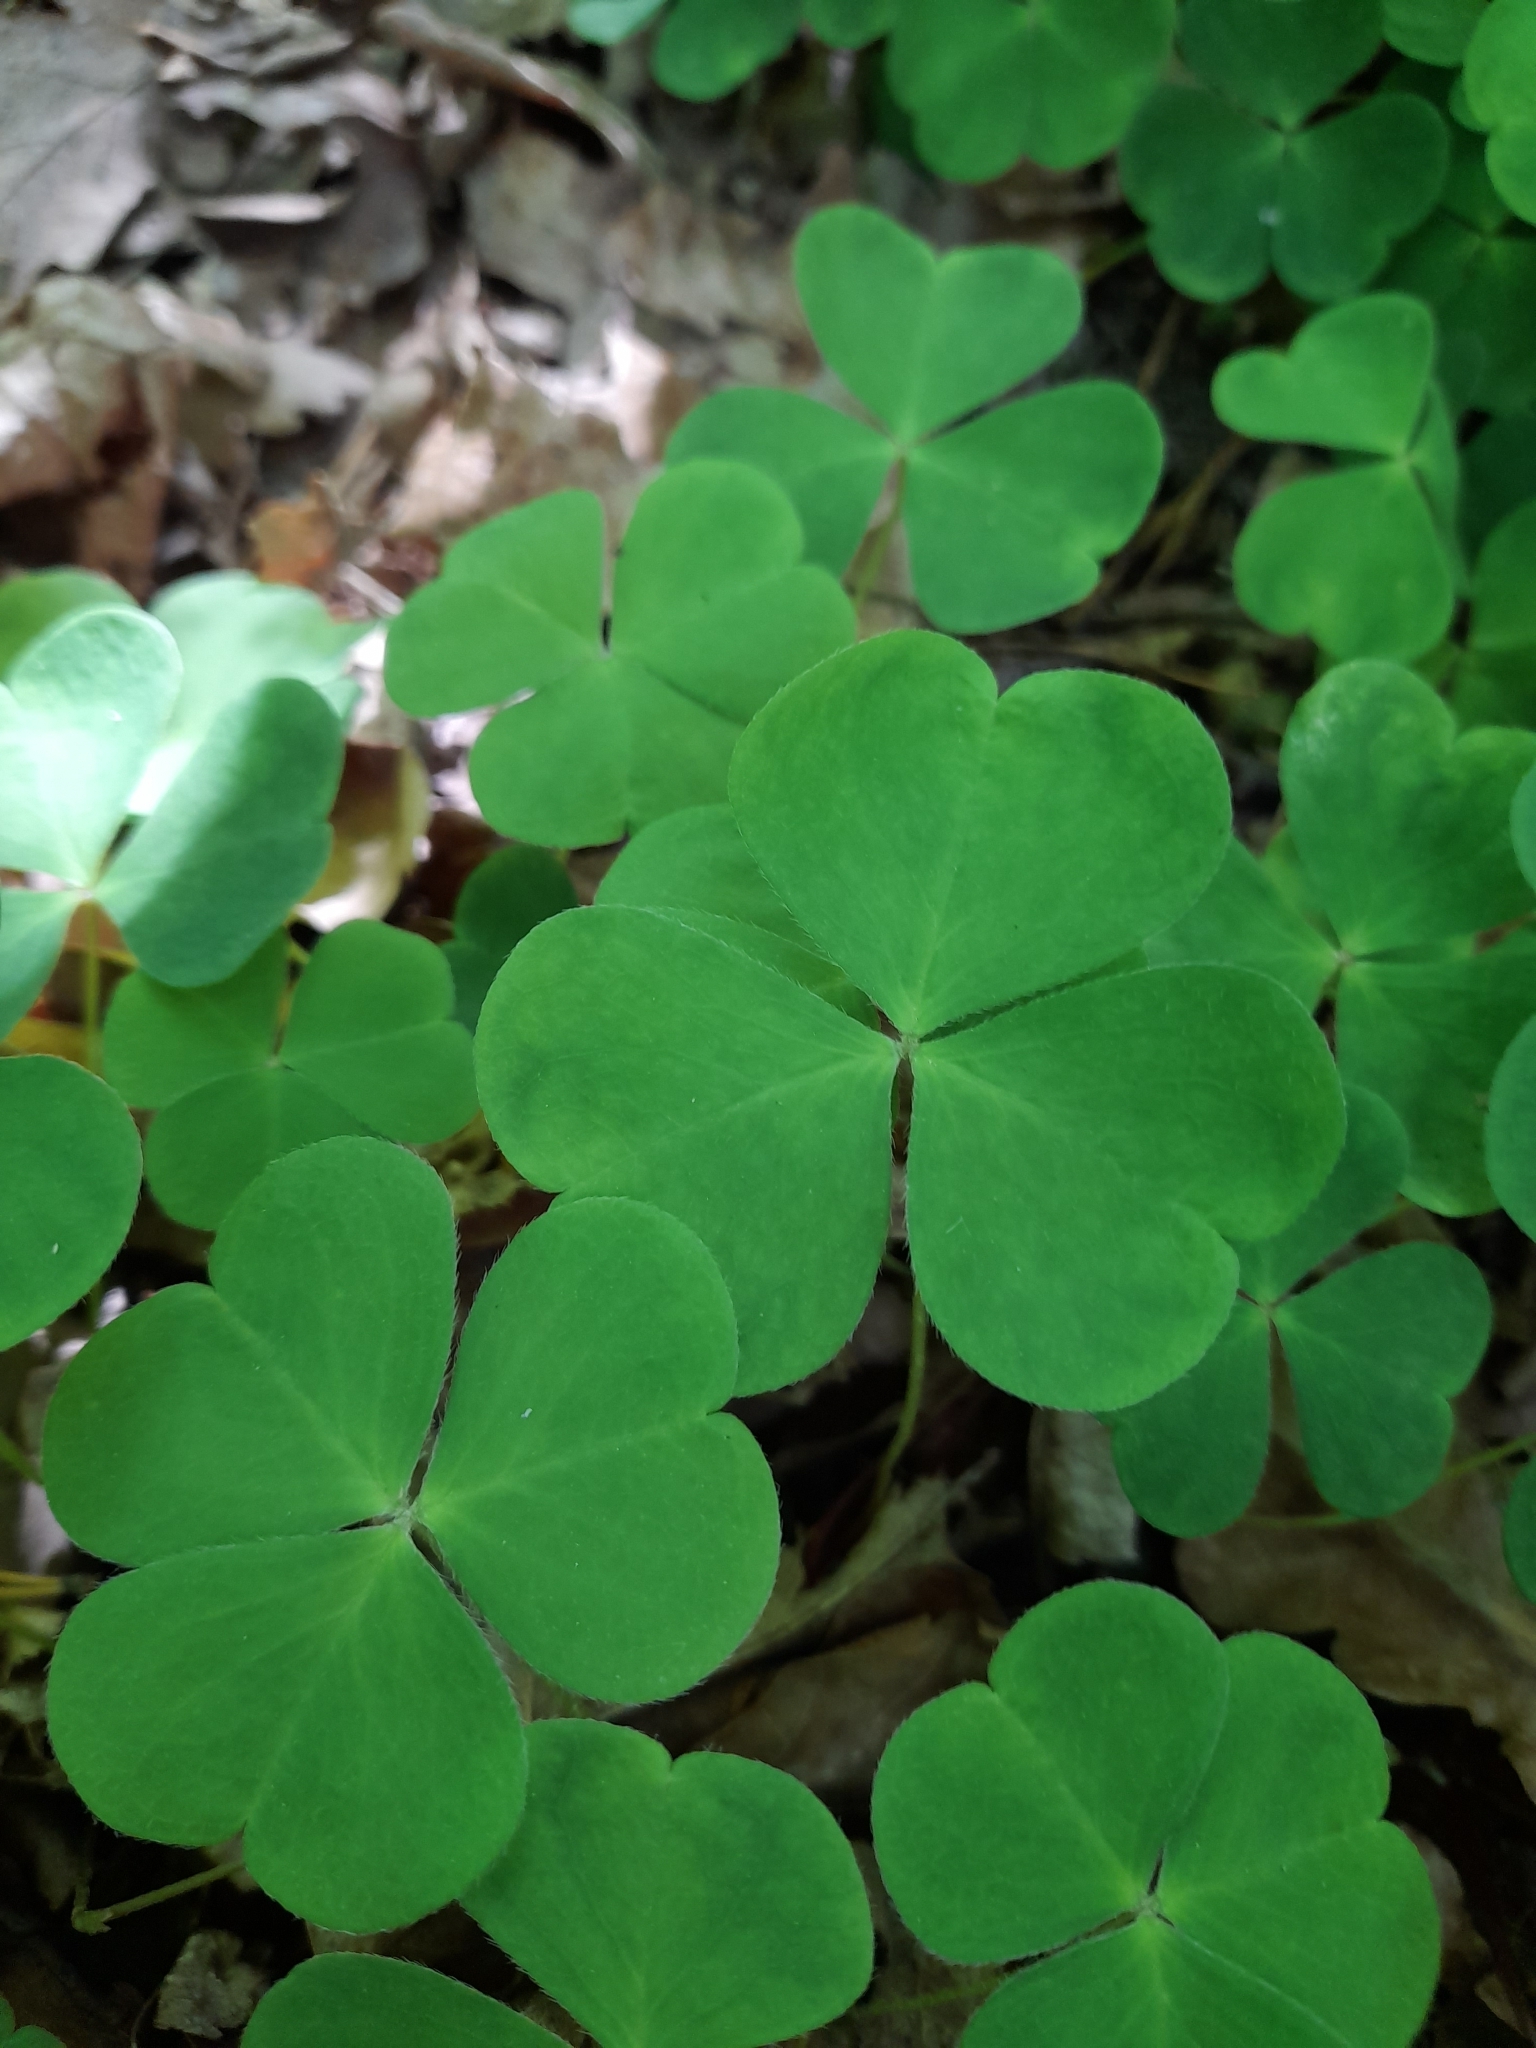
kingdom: Plantae
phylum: Tracheophyta
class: Magnoliopsida
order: Oxalidales
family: Oxalidaceae
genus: Oxalis
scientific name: Oxalis acetosella
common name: Wood-sorrel
